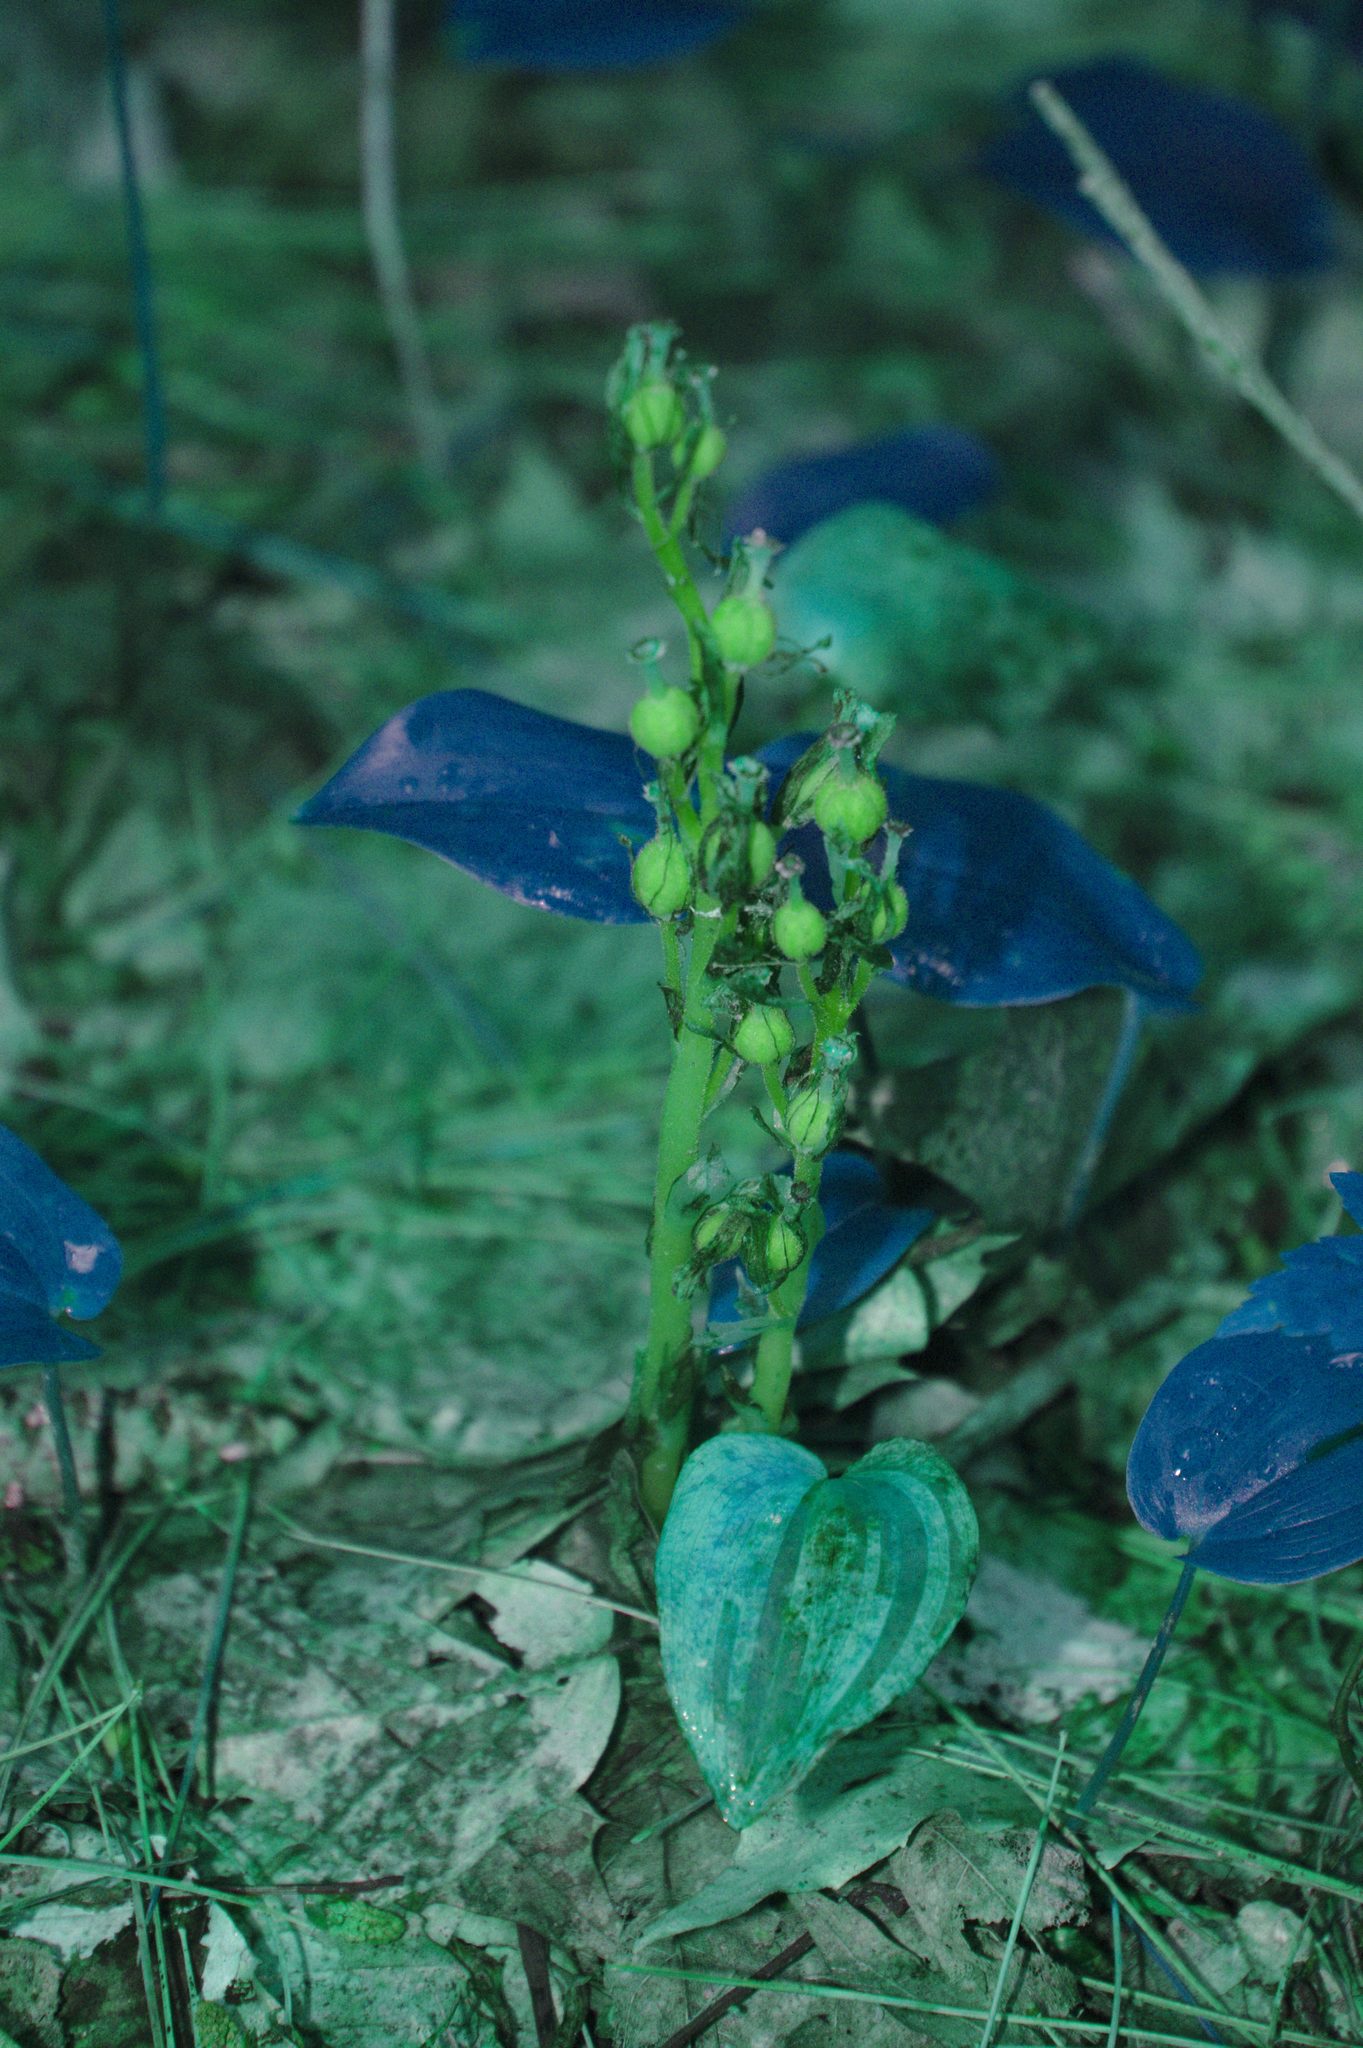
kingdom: Plantae
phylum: Tracheophyta
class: Magnoliopsida
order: Ericales
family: Ericaceae
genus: Hypopitys
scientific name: Hypopitys monotropa
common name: Yellow bird's-nest
